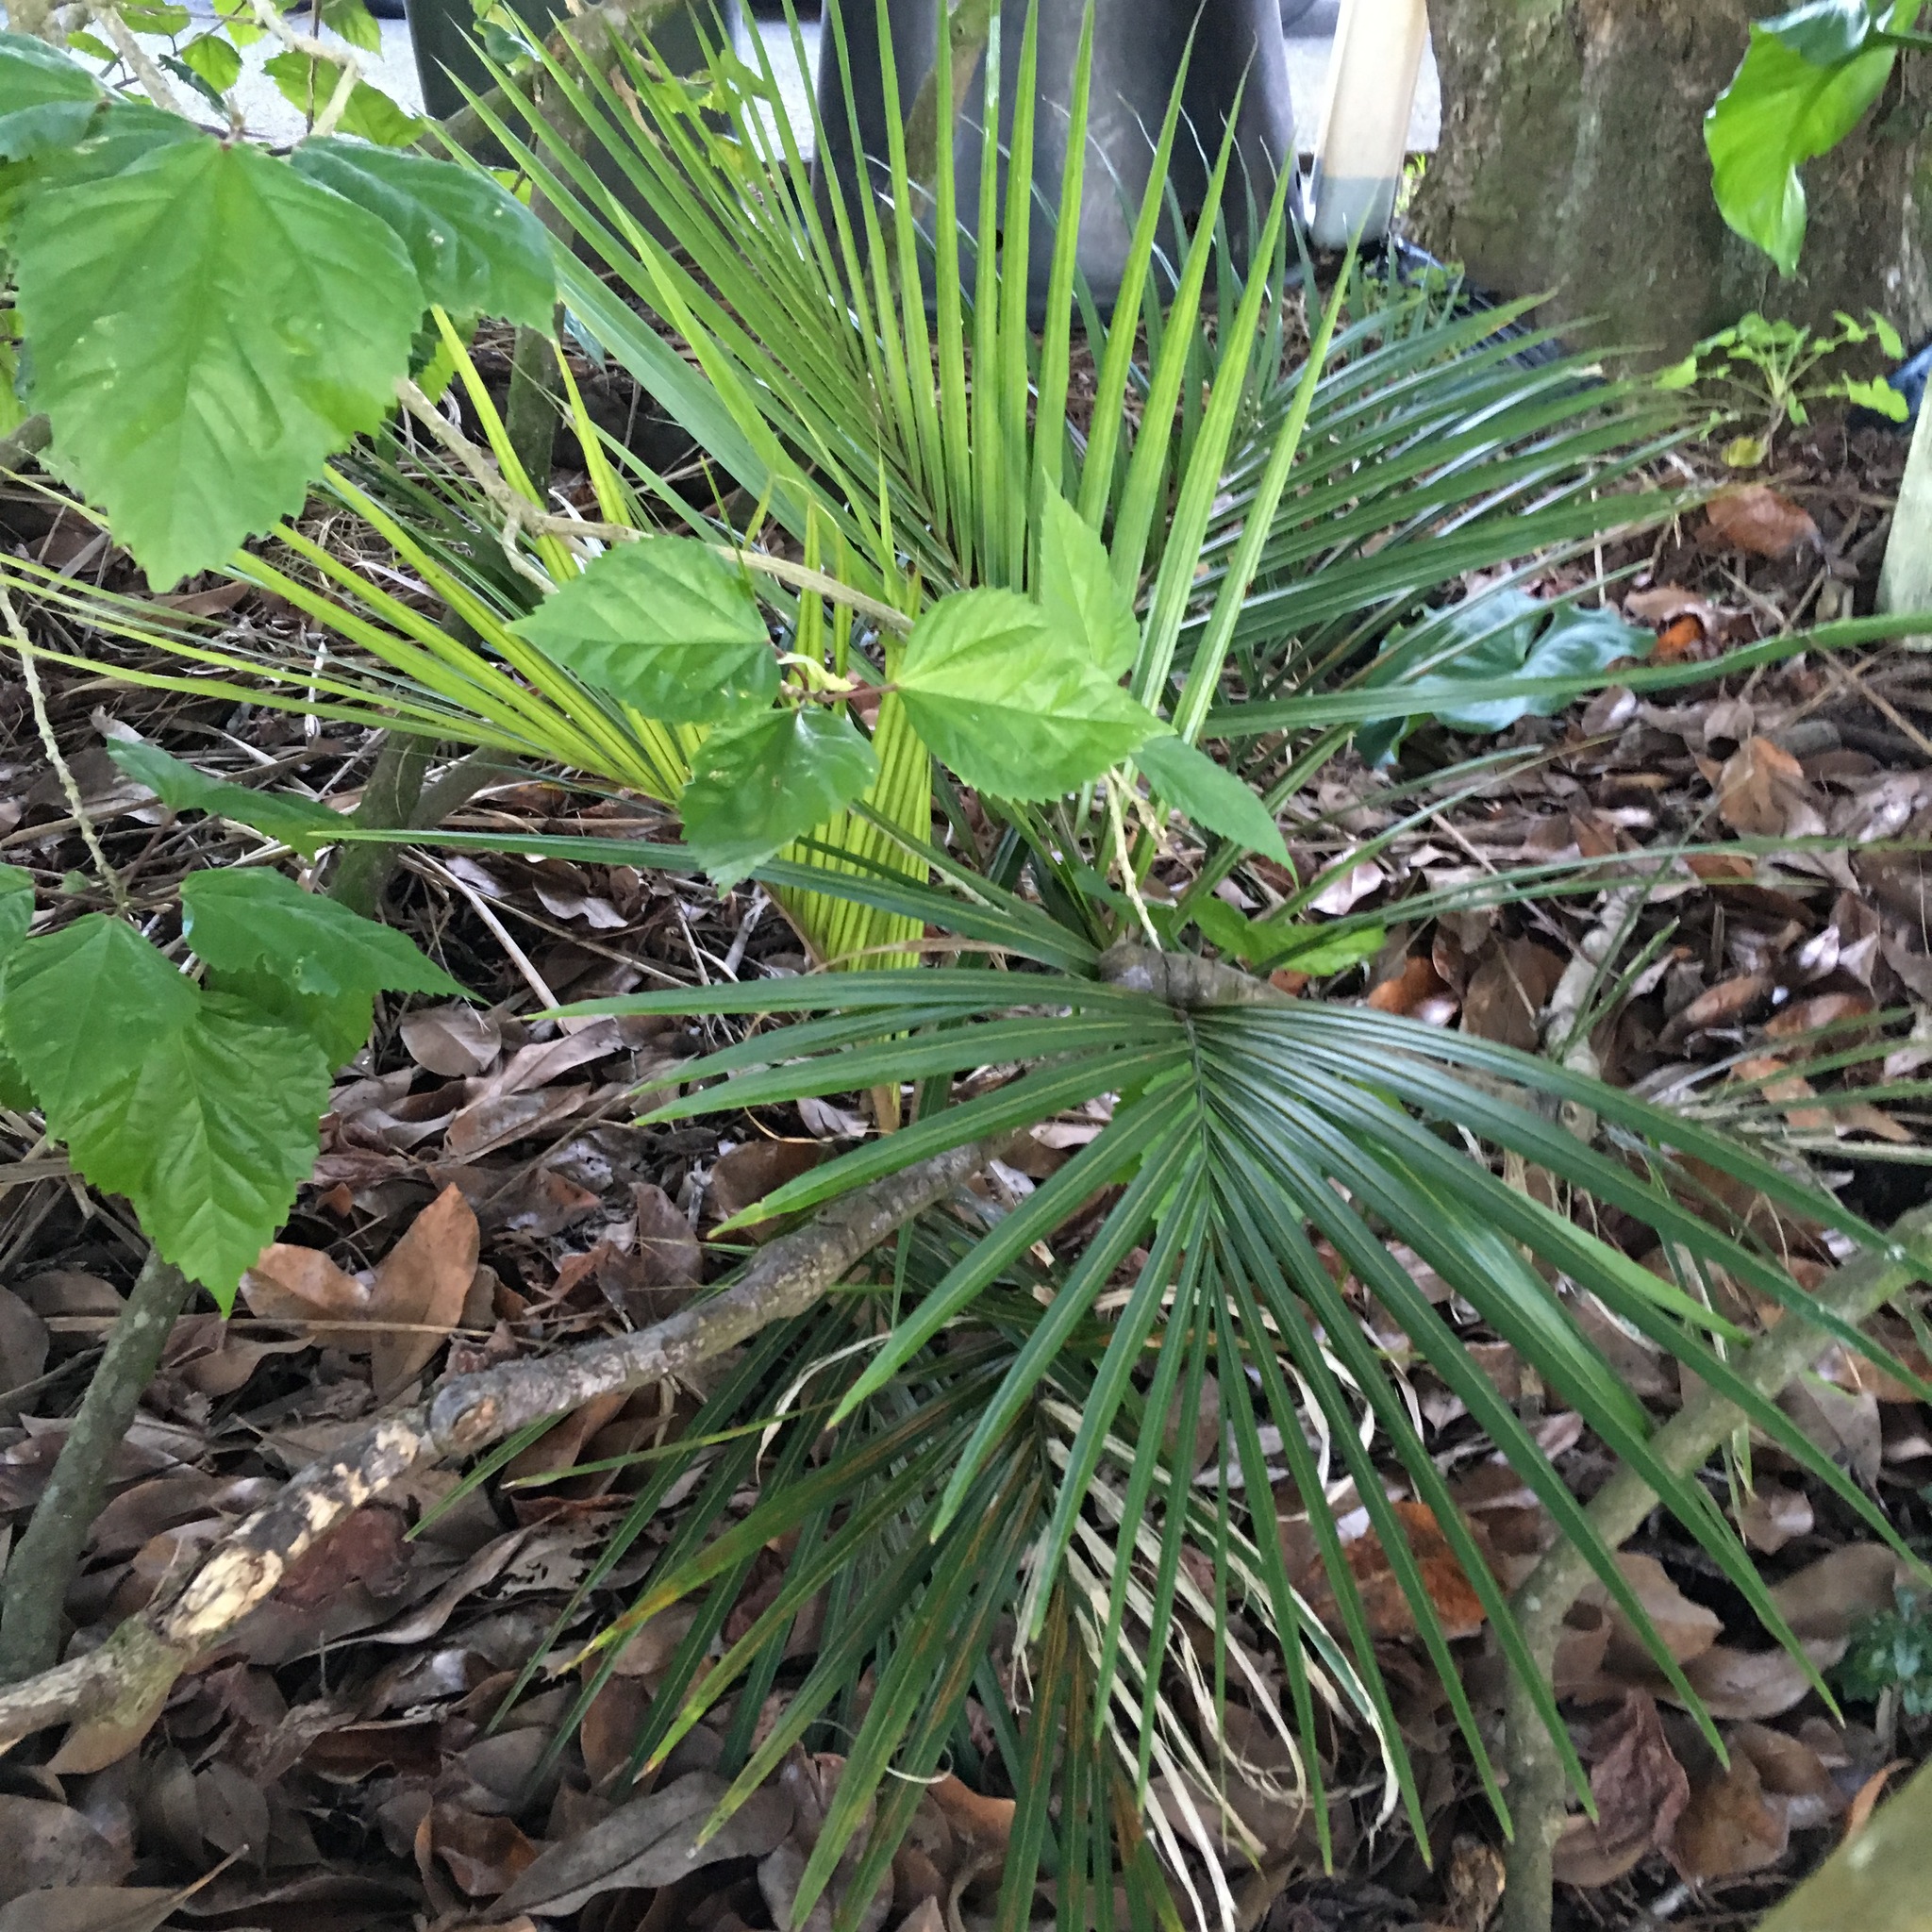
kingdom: Plantae
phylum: Tracheophyta
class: Liliopsida
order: Arecales
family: Arecaceae
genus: Rhopalostylis
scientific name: Rhopalostylis sapida
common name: Feather-duster palm
